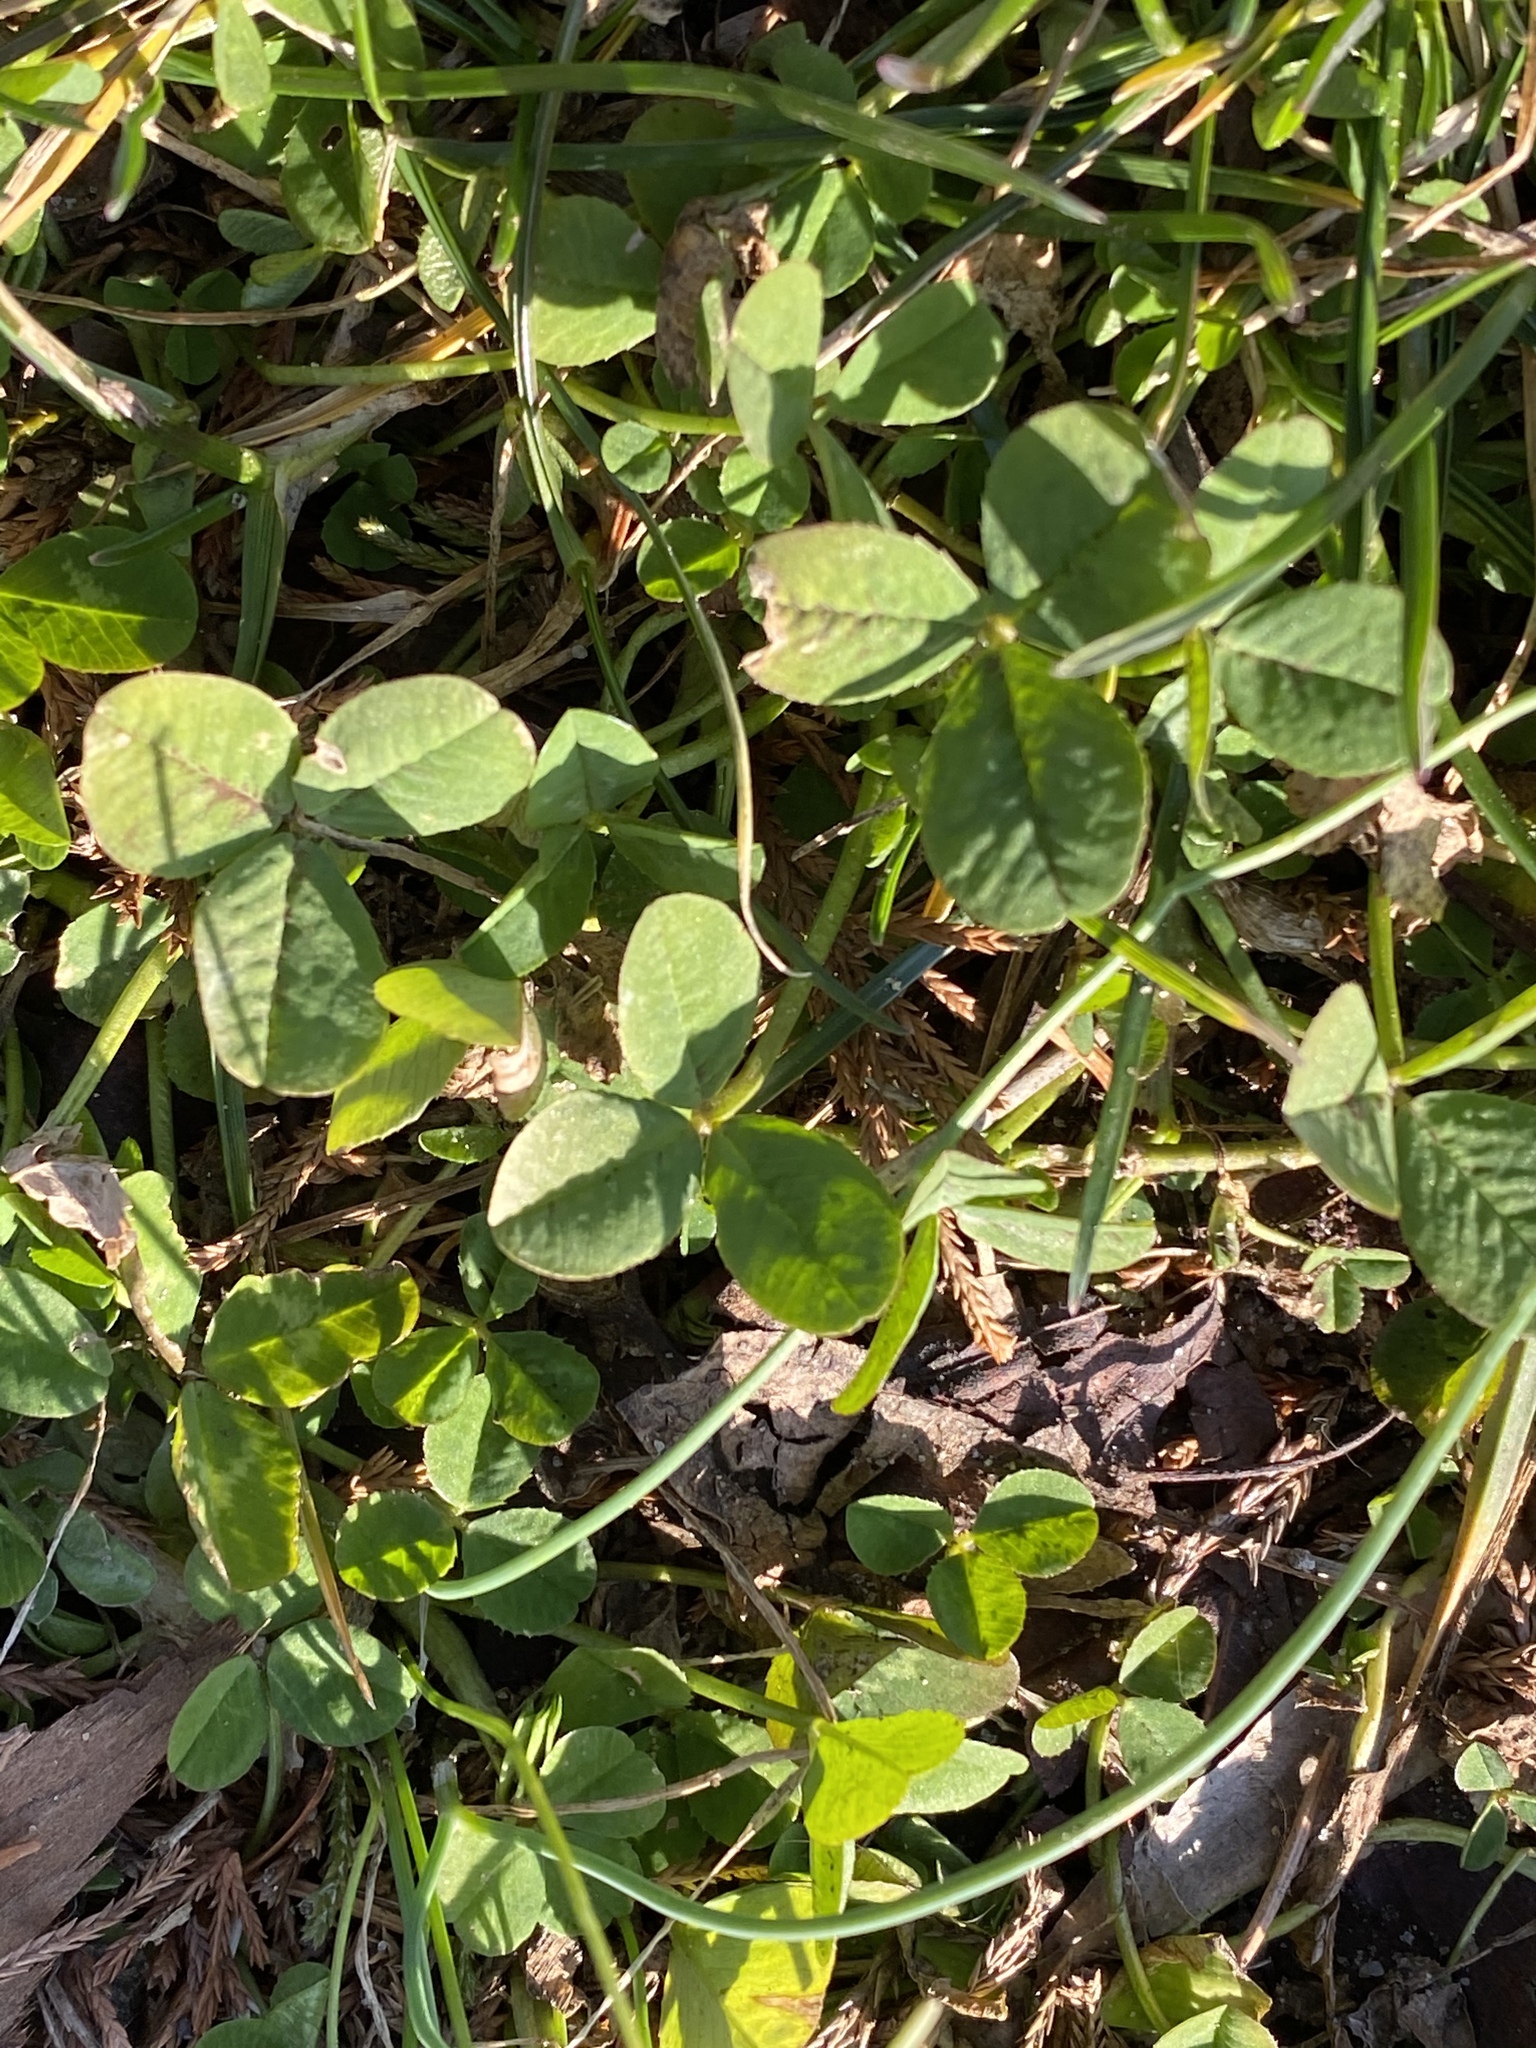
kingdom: Plantae
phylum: Tracheophyta
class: Magnoliopsida
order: Fabales
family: Fabaceae
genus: Trifolium
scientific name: Trifolium repens
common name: White clover
